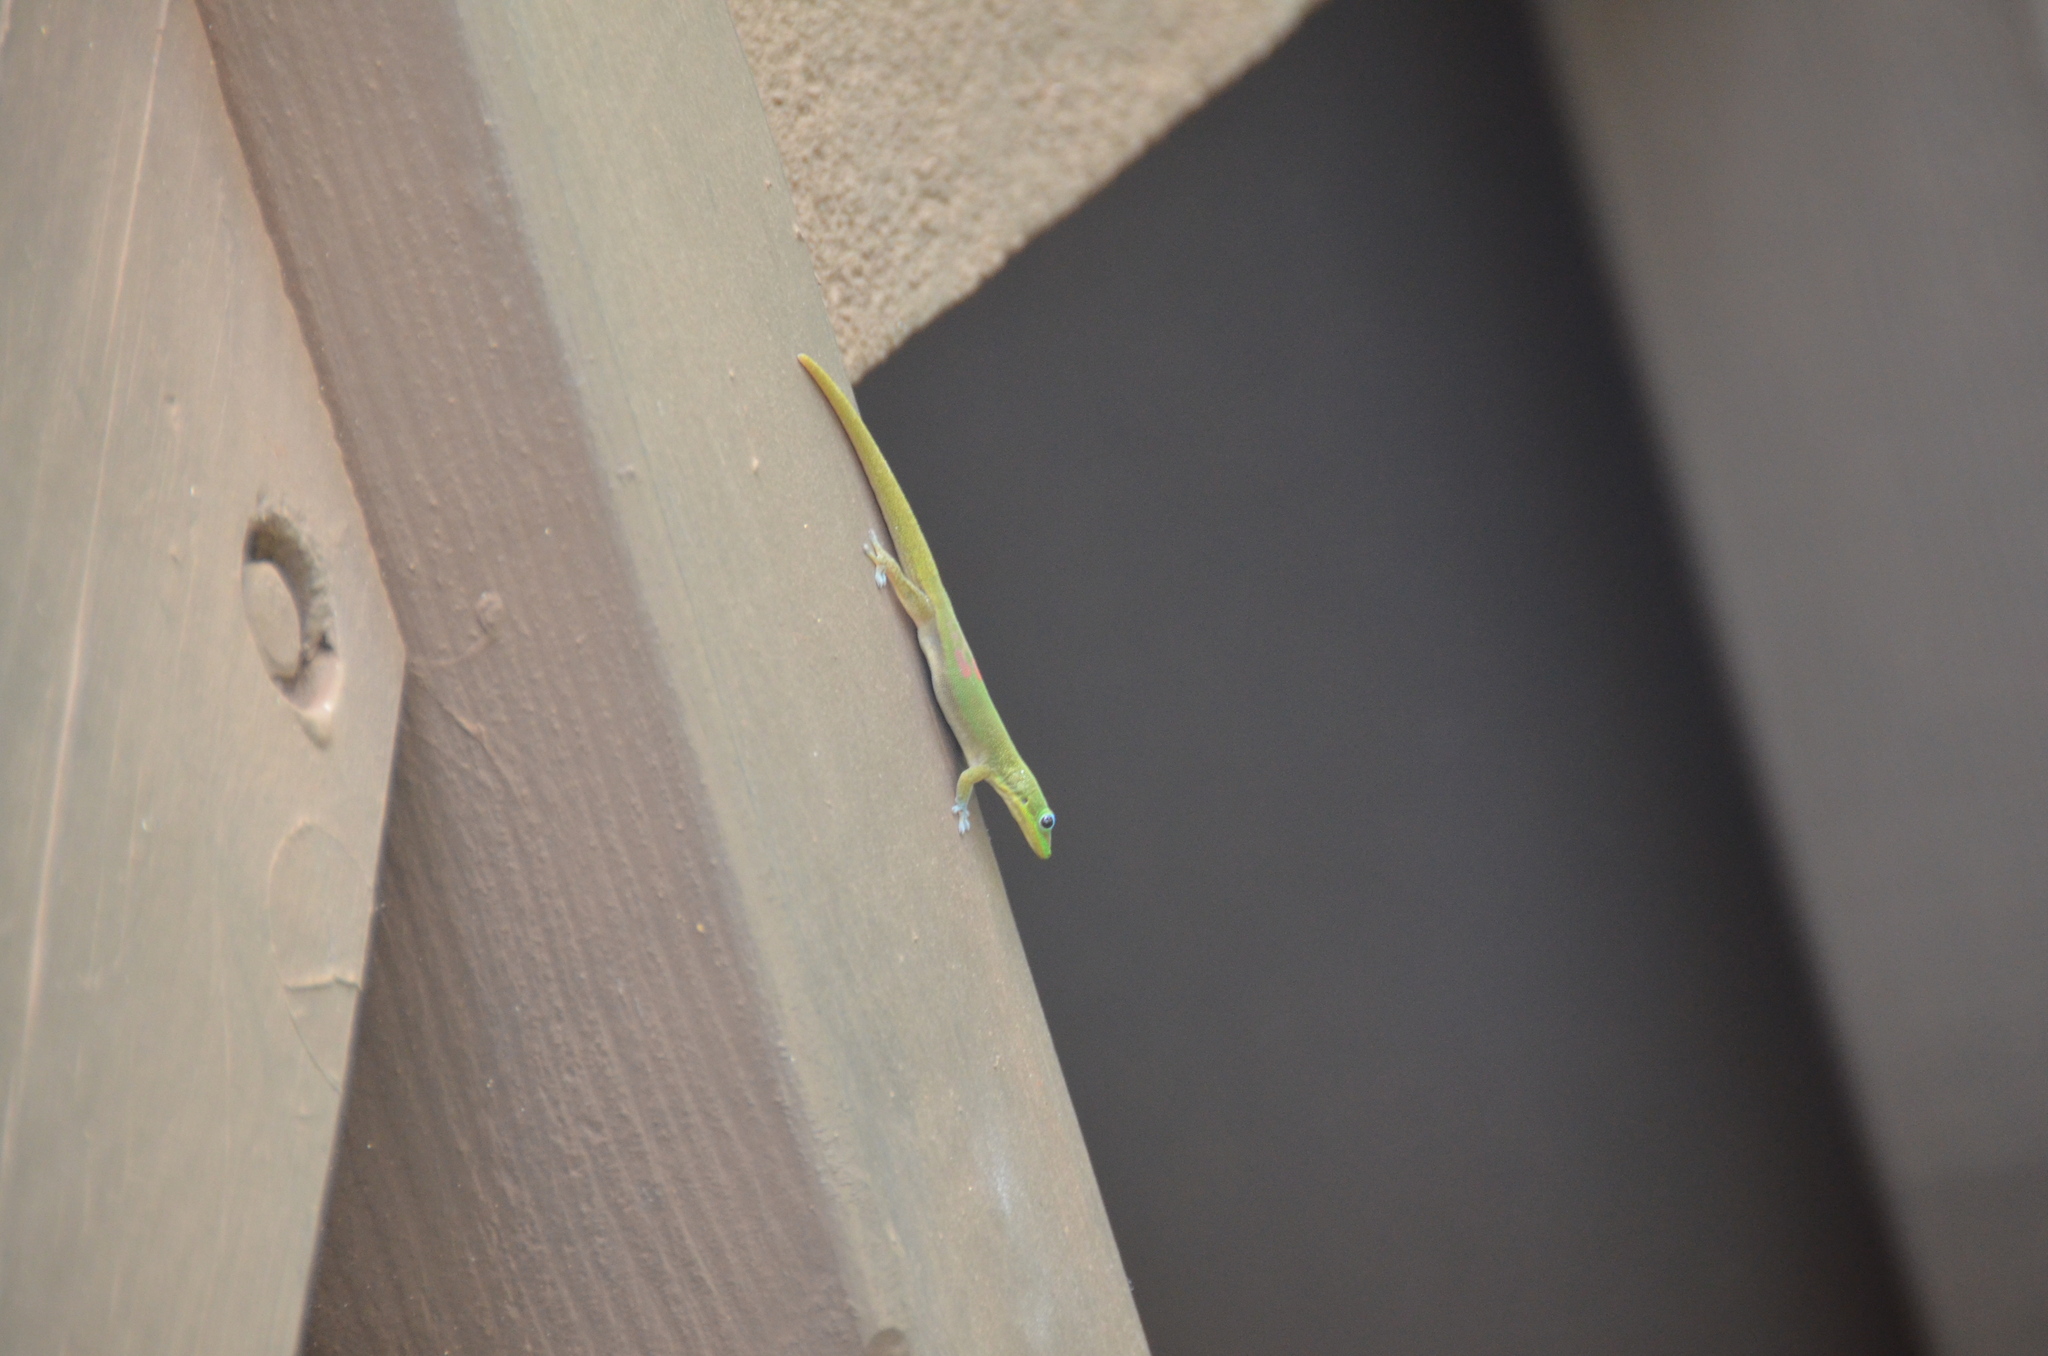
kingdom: Animalia
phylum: Chordata
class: Squamata
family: Gekkonidae
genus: Phelsuma
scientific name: Phelsuma laticauda
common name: Gold dust day gecko
